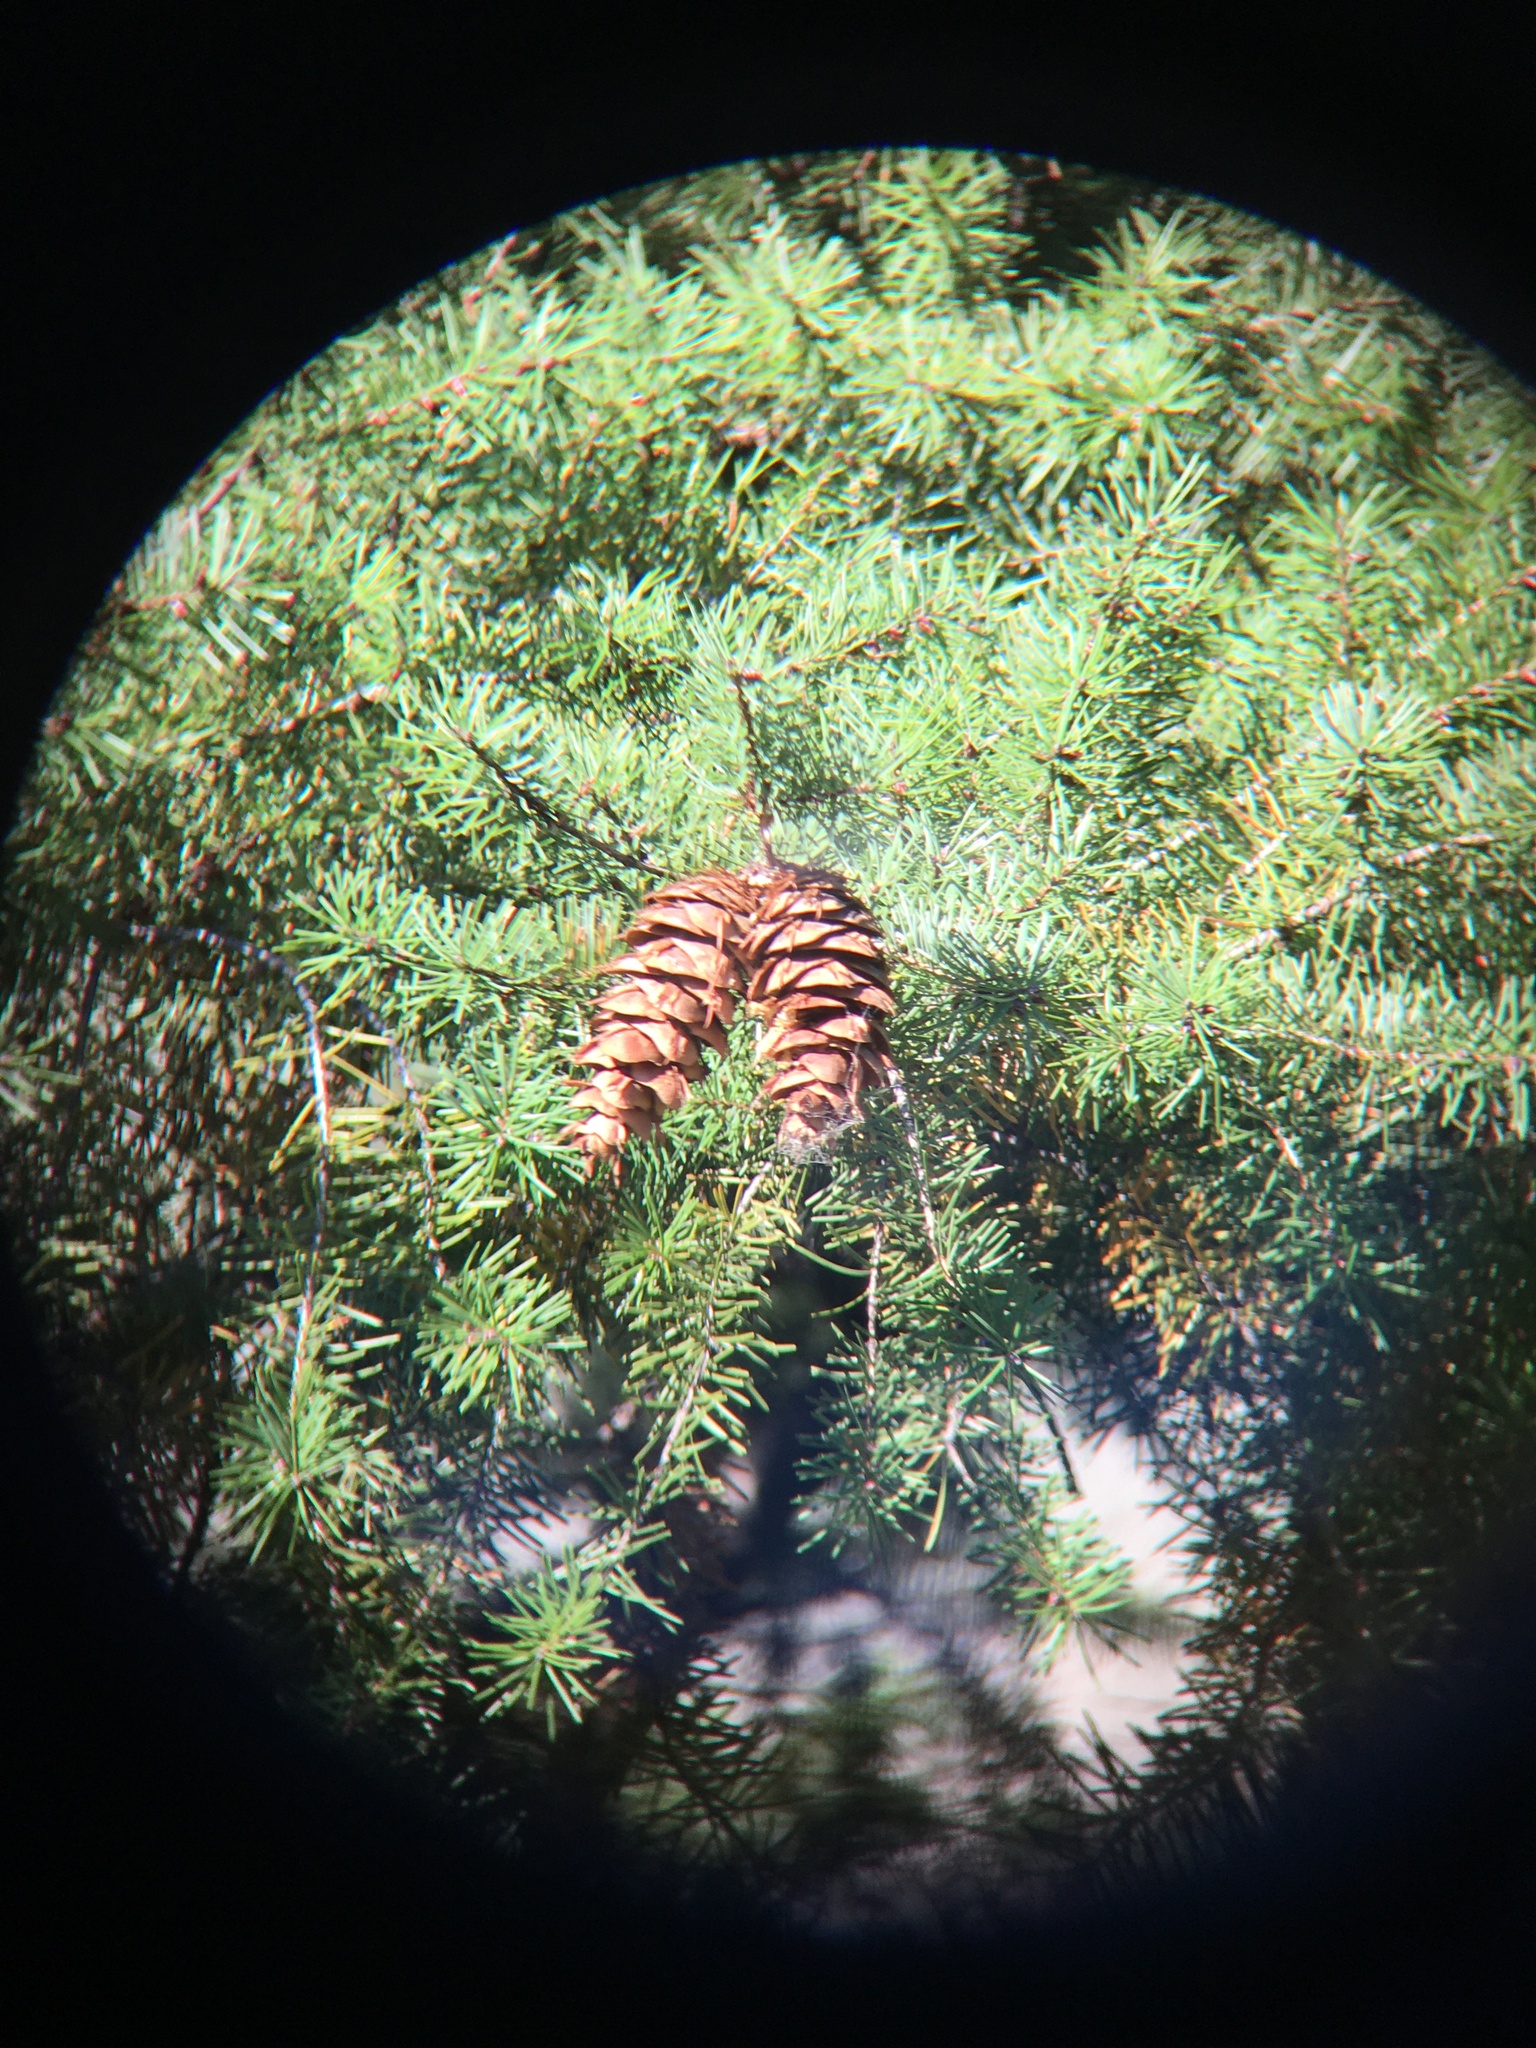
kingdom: Plantae
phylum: Tracheophyta
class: Pinopsida
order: Pinales
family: Pinaceae
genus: Pseudotsuga
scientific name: Pseudotsuga menziesii
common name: Douglas fir
